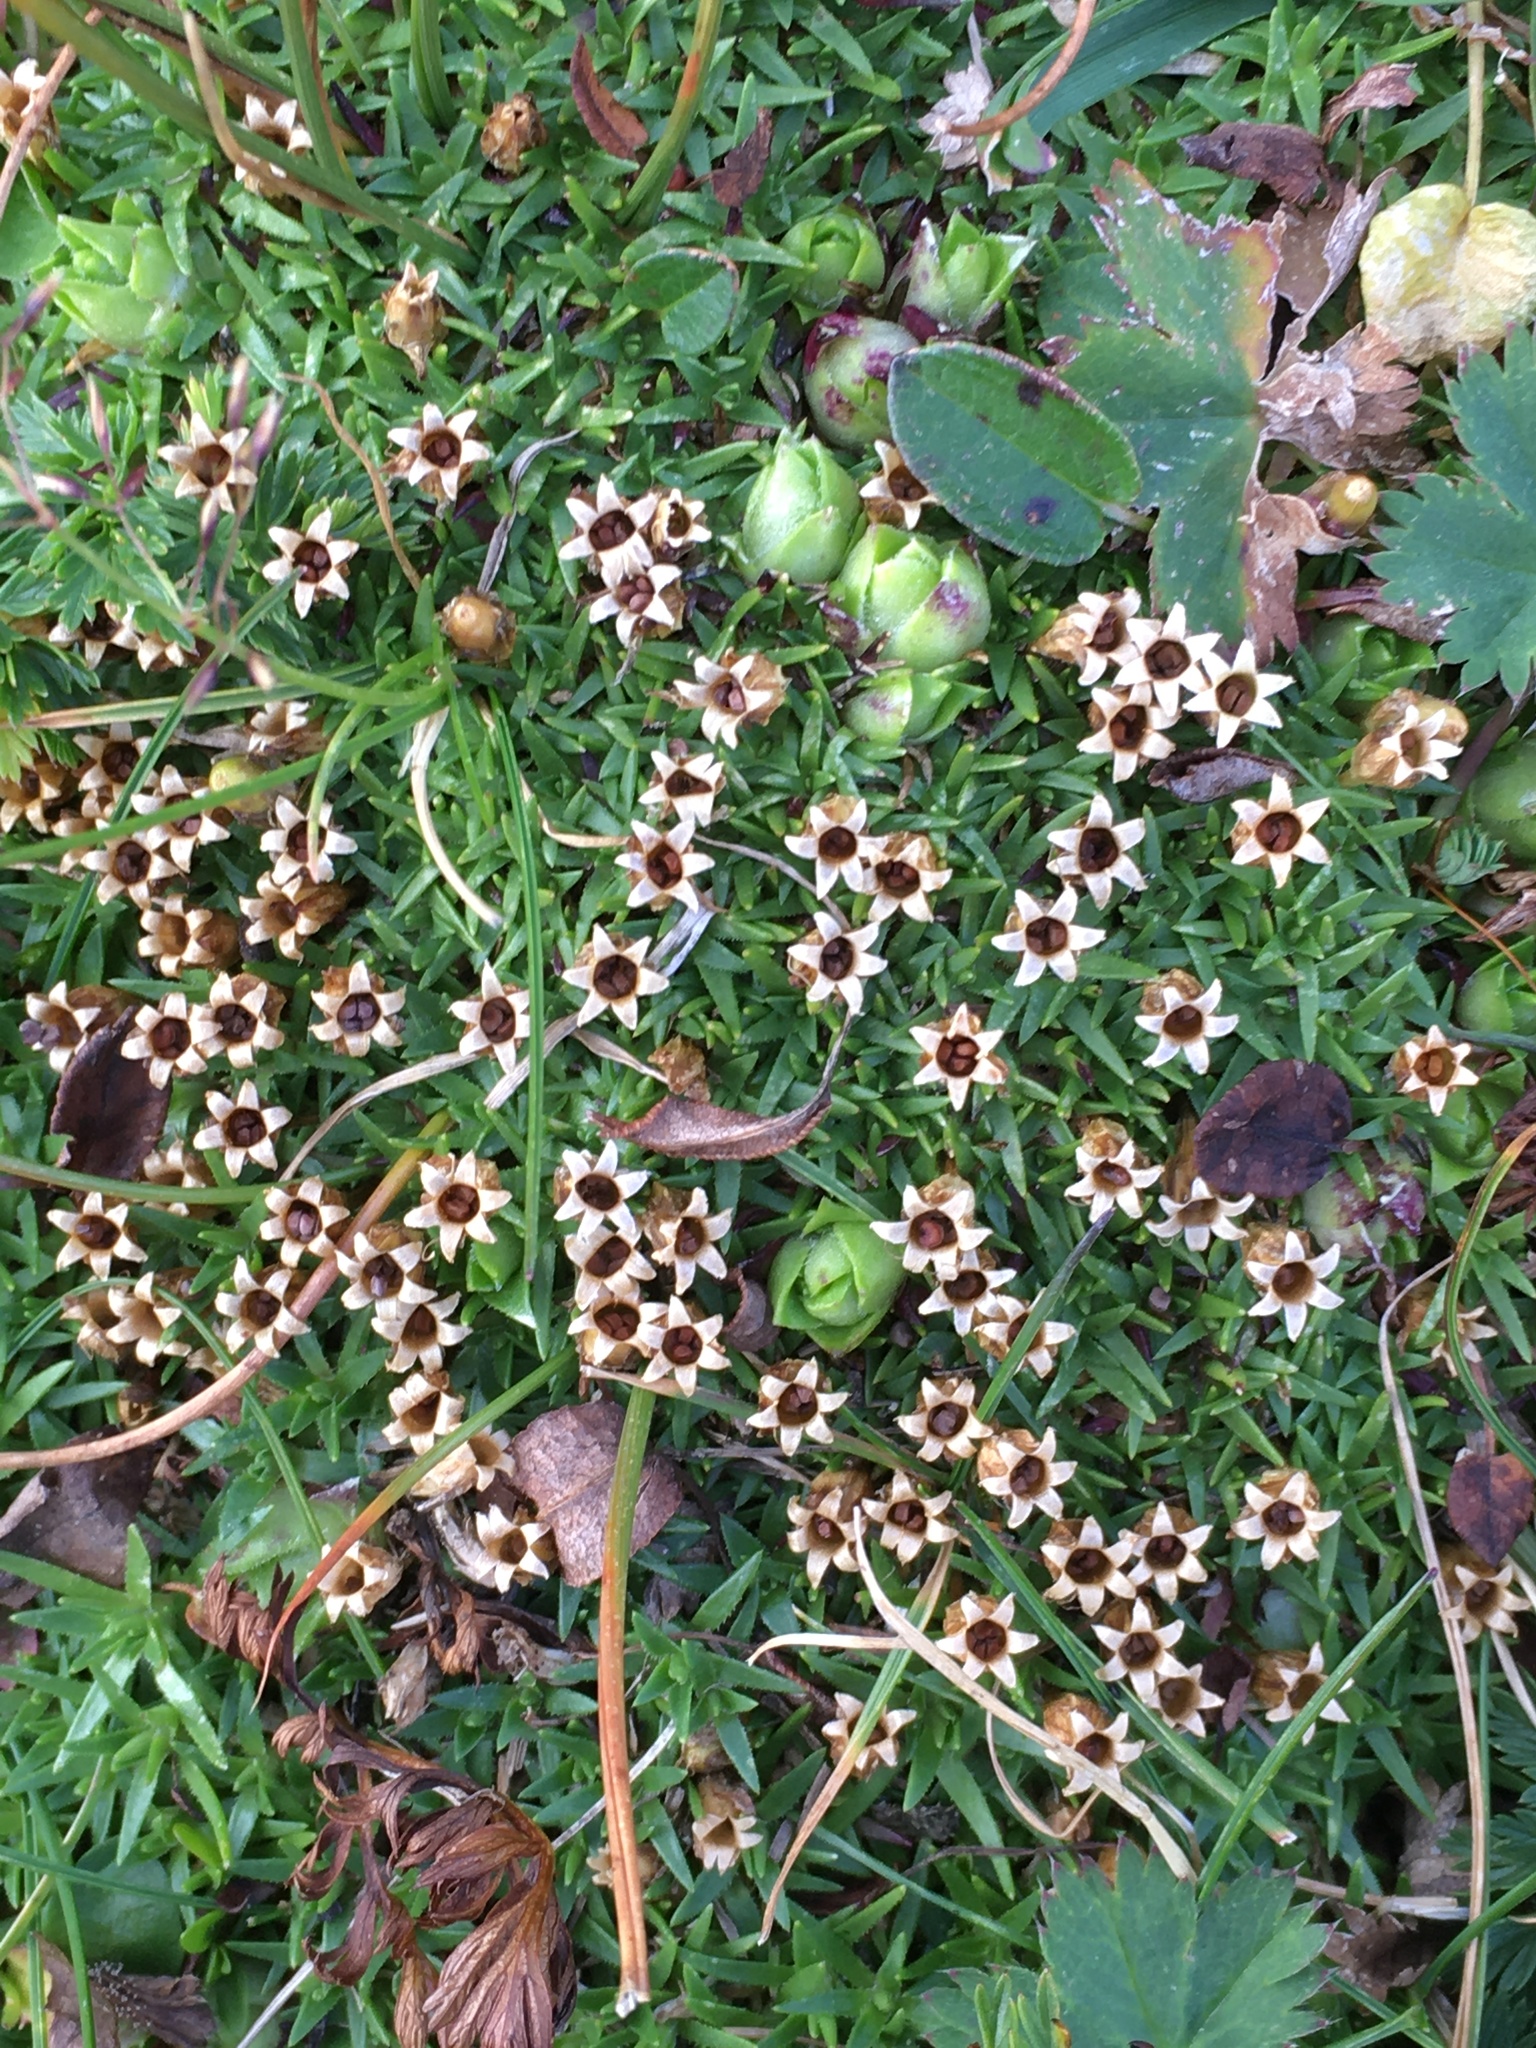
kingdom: Plantae
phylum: Tracheophyta
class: Magnoliopsida
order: Caryophyllales
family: Caryophyllaceae
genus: Silene
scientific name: Silene acaulis
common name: Moss campion
